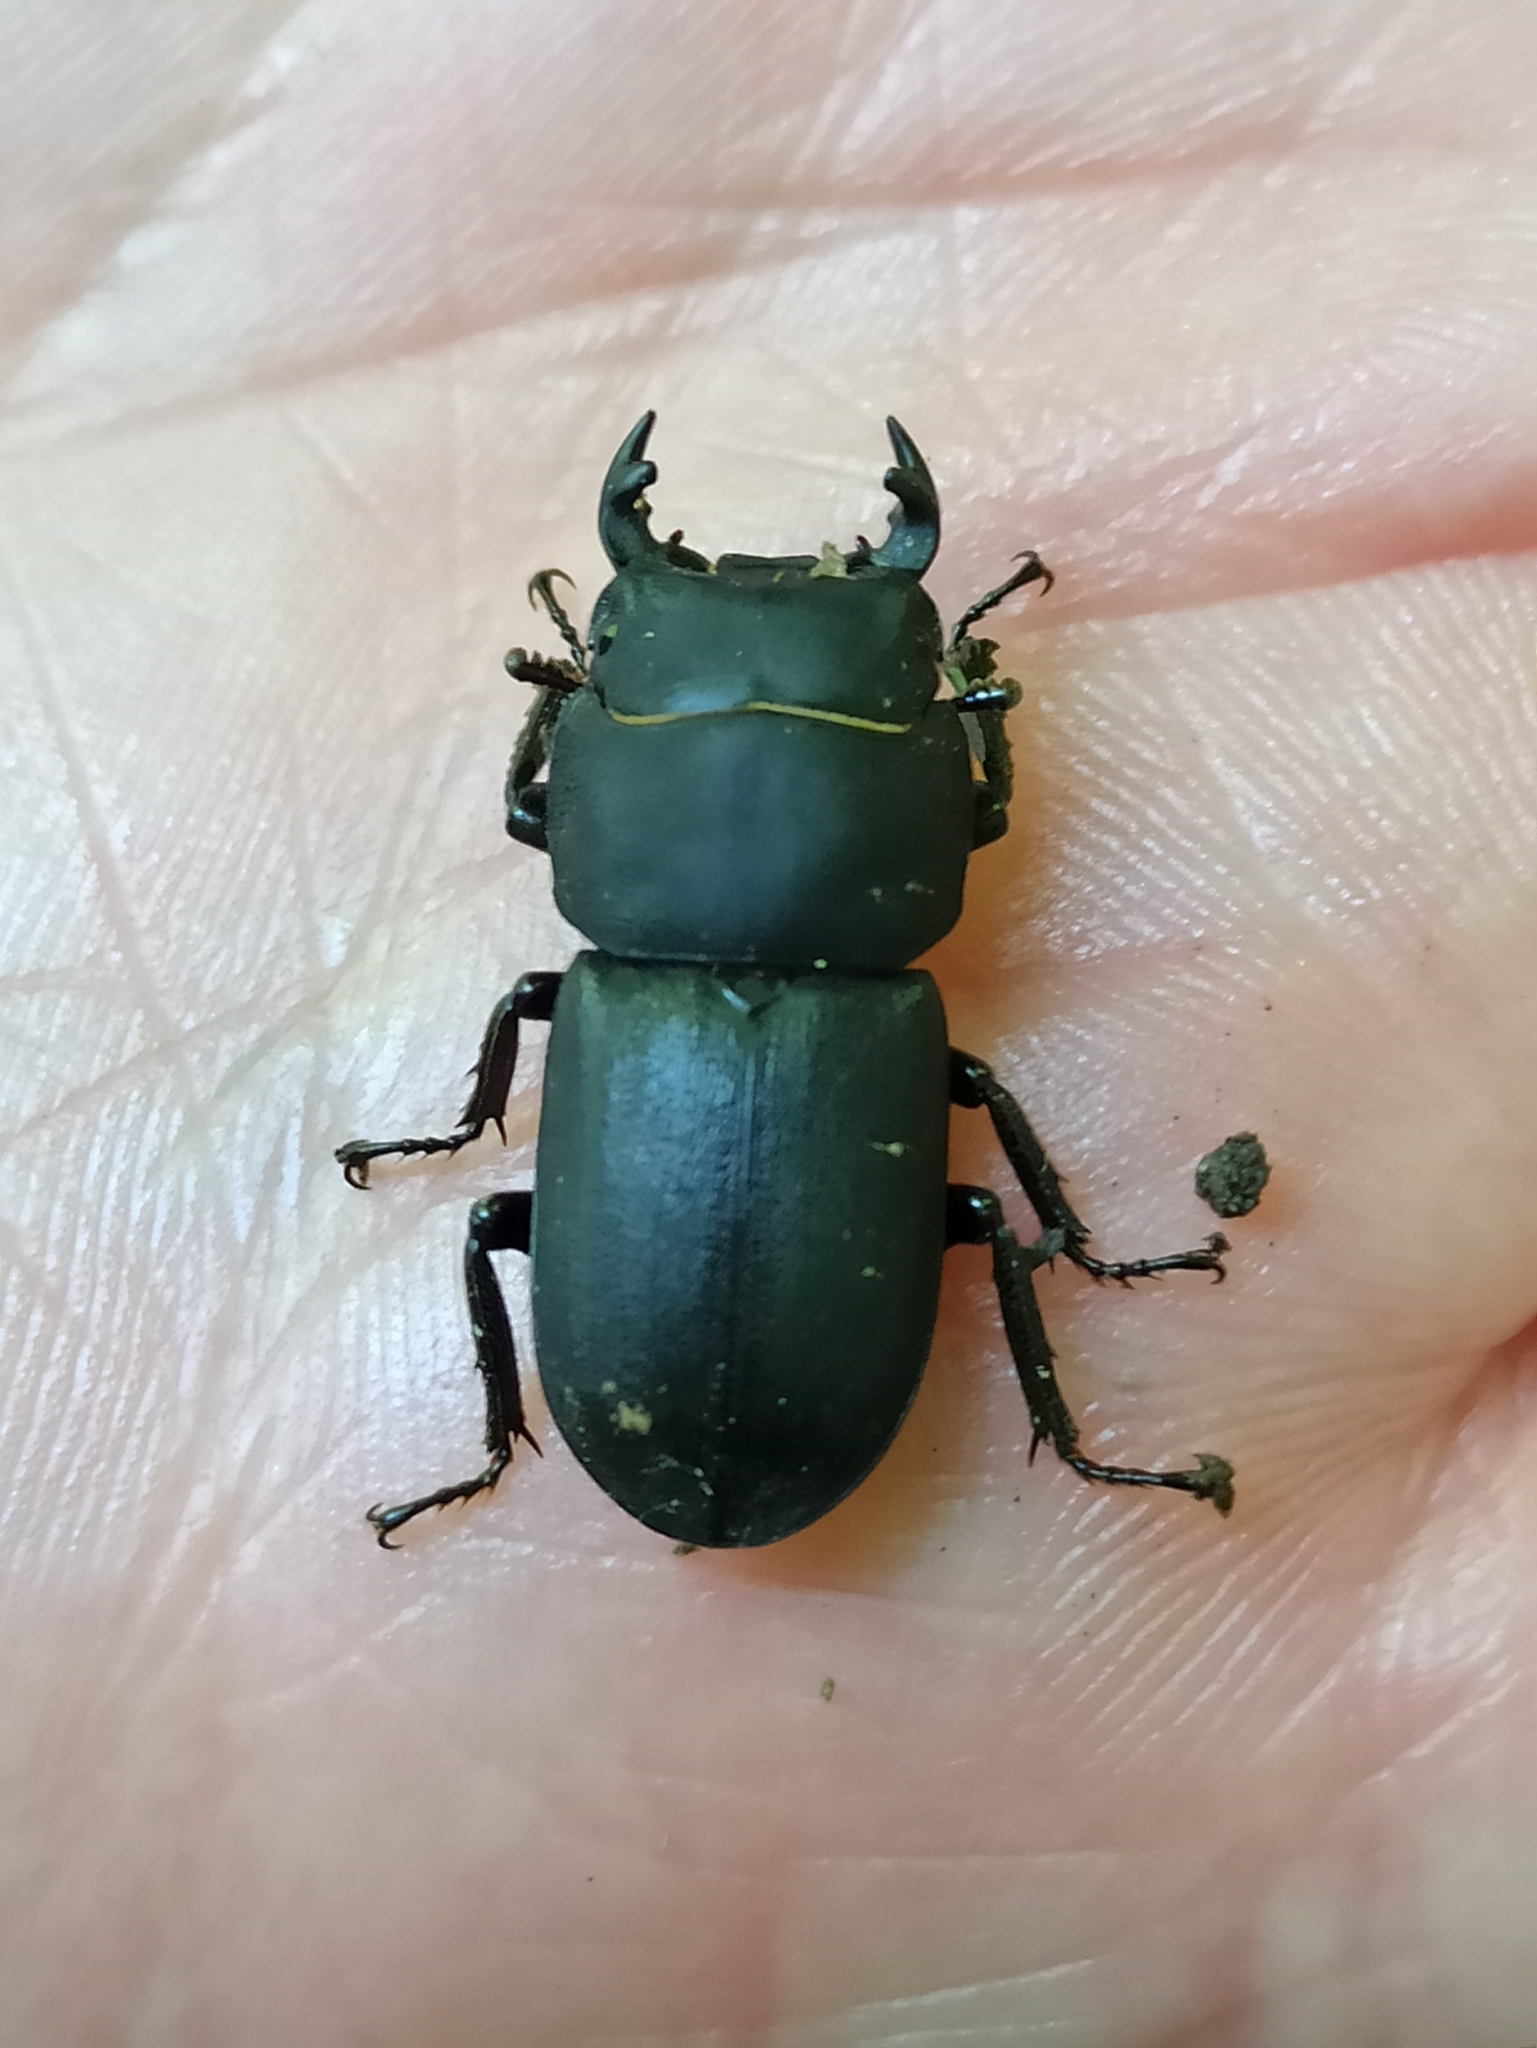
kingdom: Animalia
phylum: Arthropoda
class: Insecta
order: Coleoptera
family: Lucanidae
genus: Dorcus
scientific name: Dorcus parallelipipedus
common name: Lesser stag beetle
